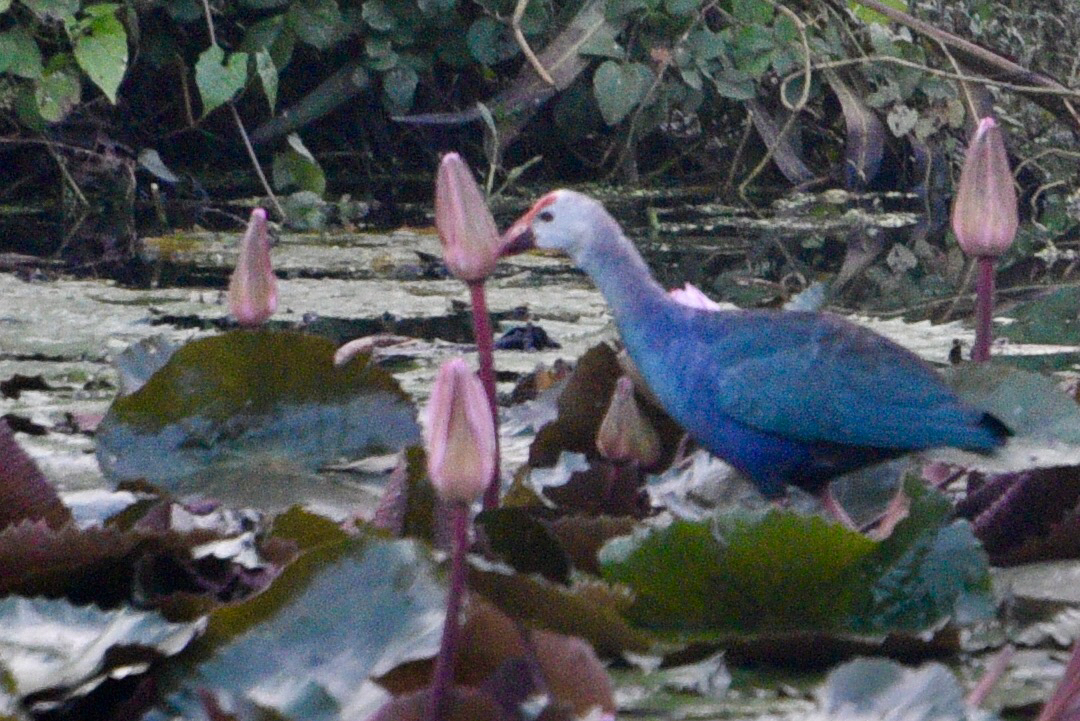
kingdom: Animalia
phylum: Chordata
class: Aves
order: Gruiformes
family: Rallidae
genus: Porphyrio
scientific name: Porphyrio porphyrio
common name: Purple swamphen
